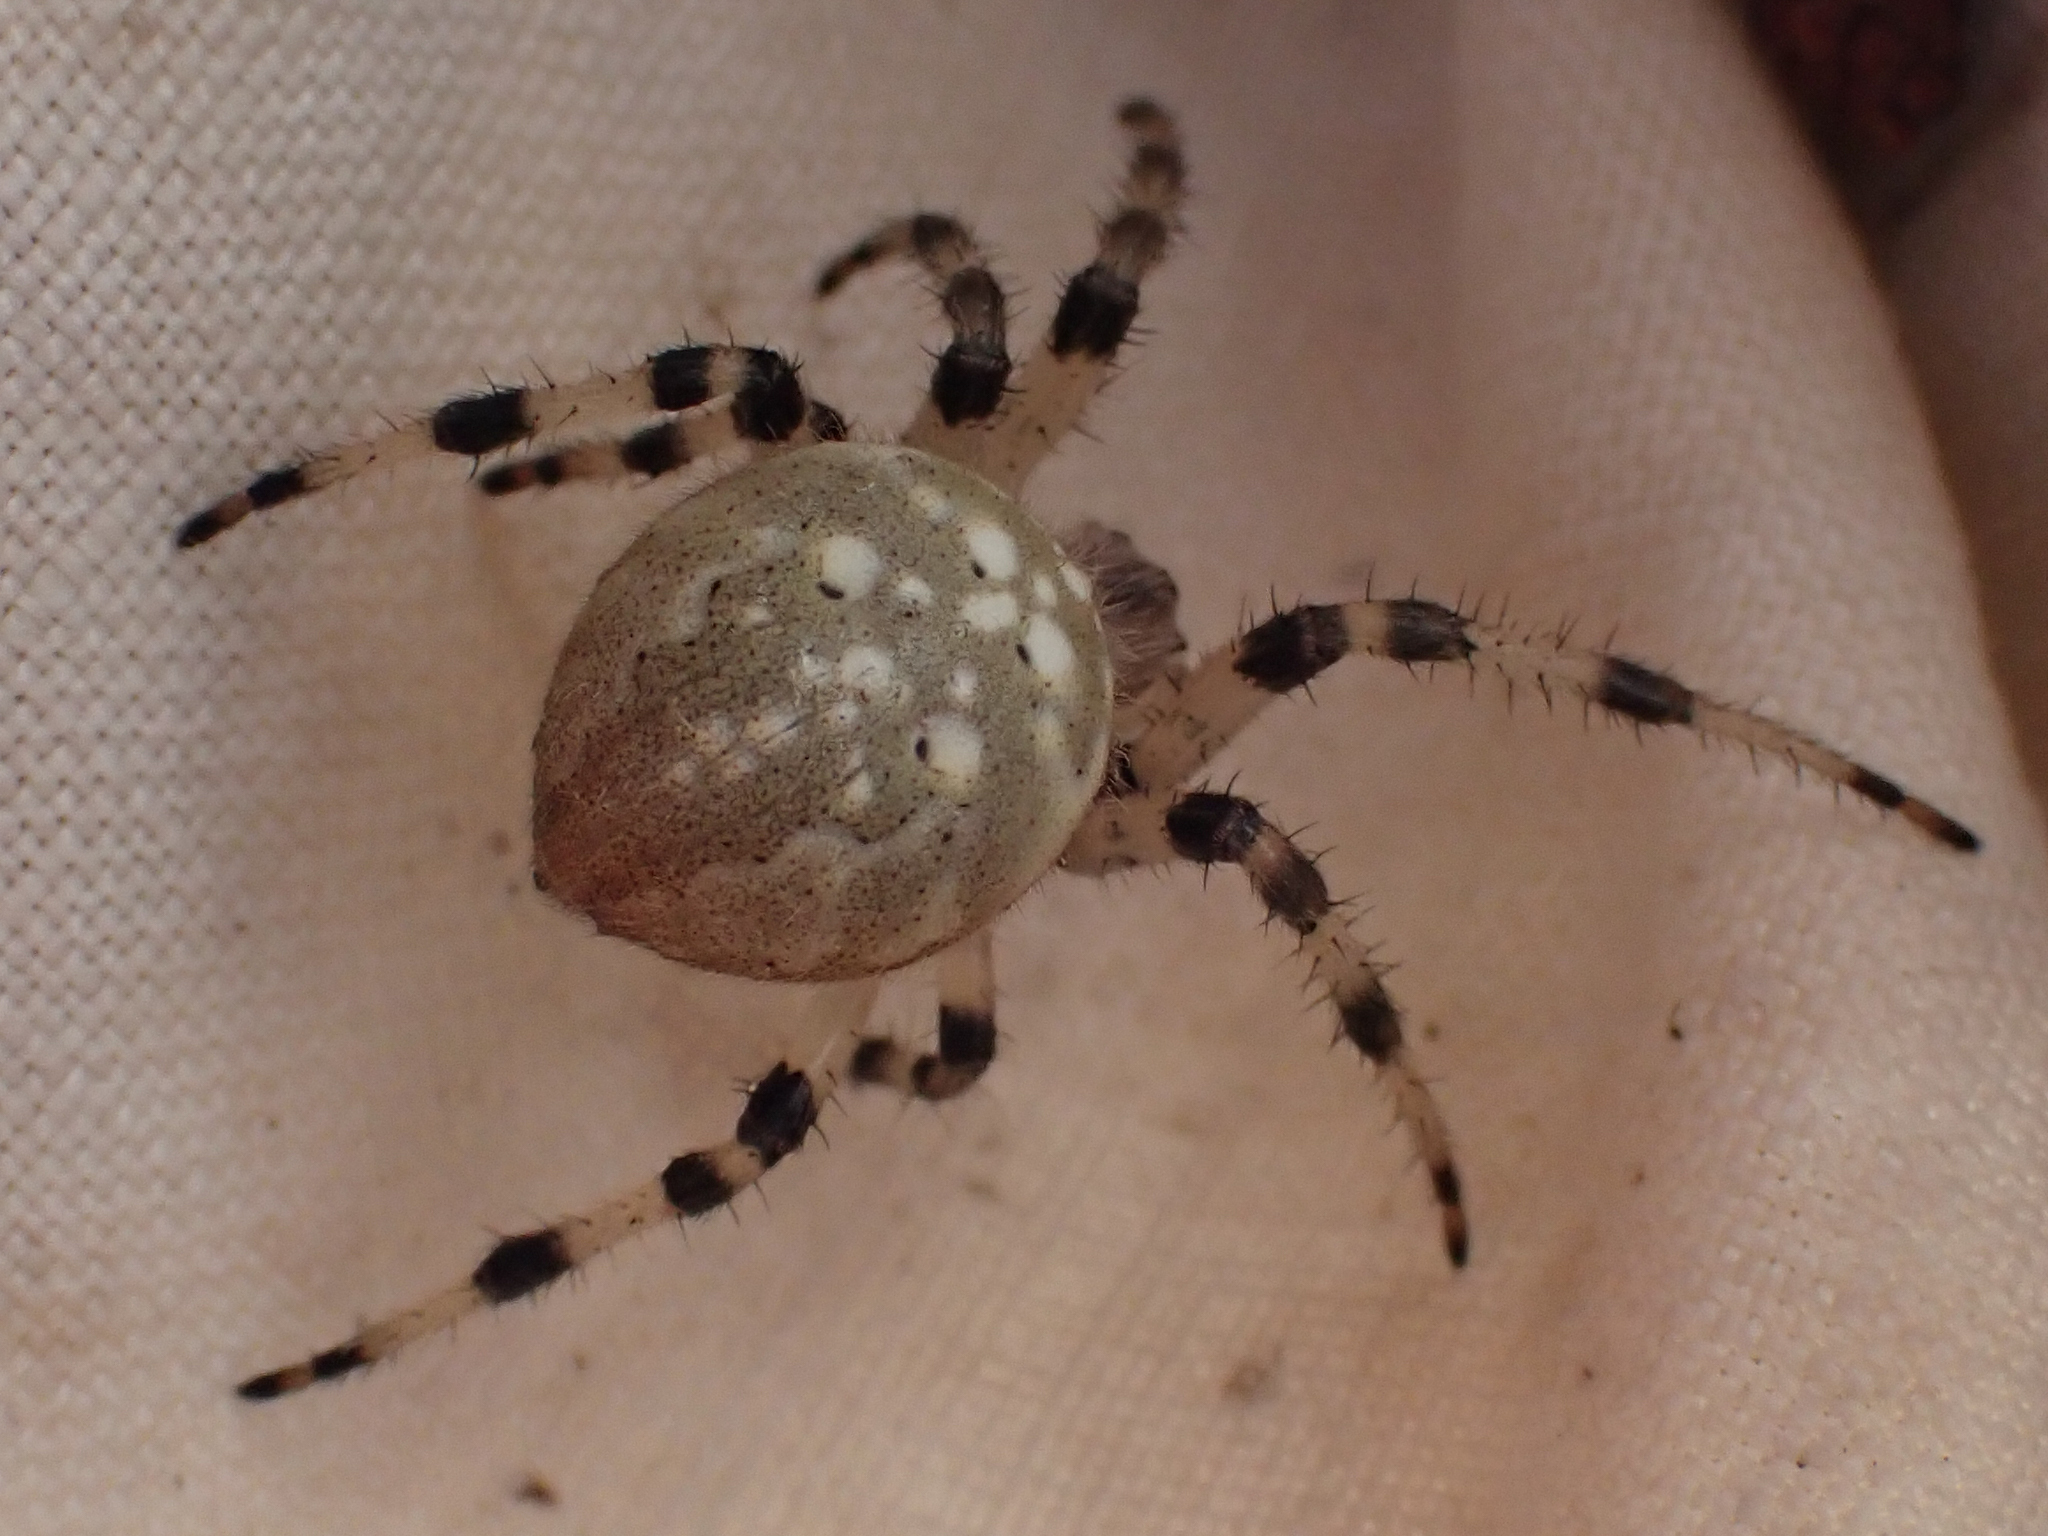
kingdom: Animalia
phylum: Arthropoda
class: Arachnida
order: Araneae
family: Araneidae
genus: Araneus
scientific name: Araneus trifolium
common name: Shamrock orbweaver
